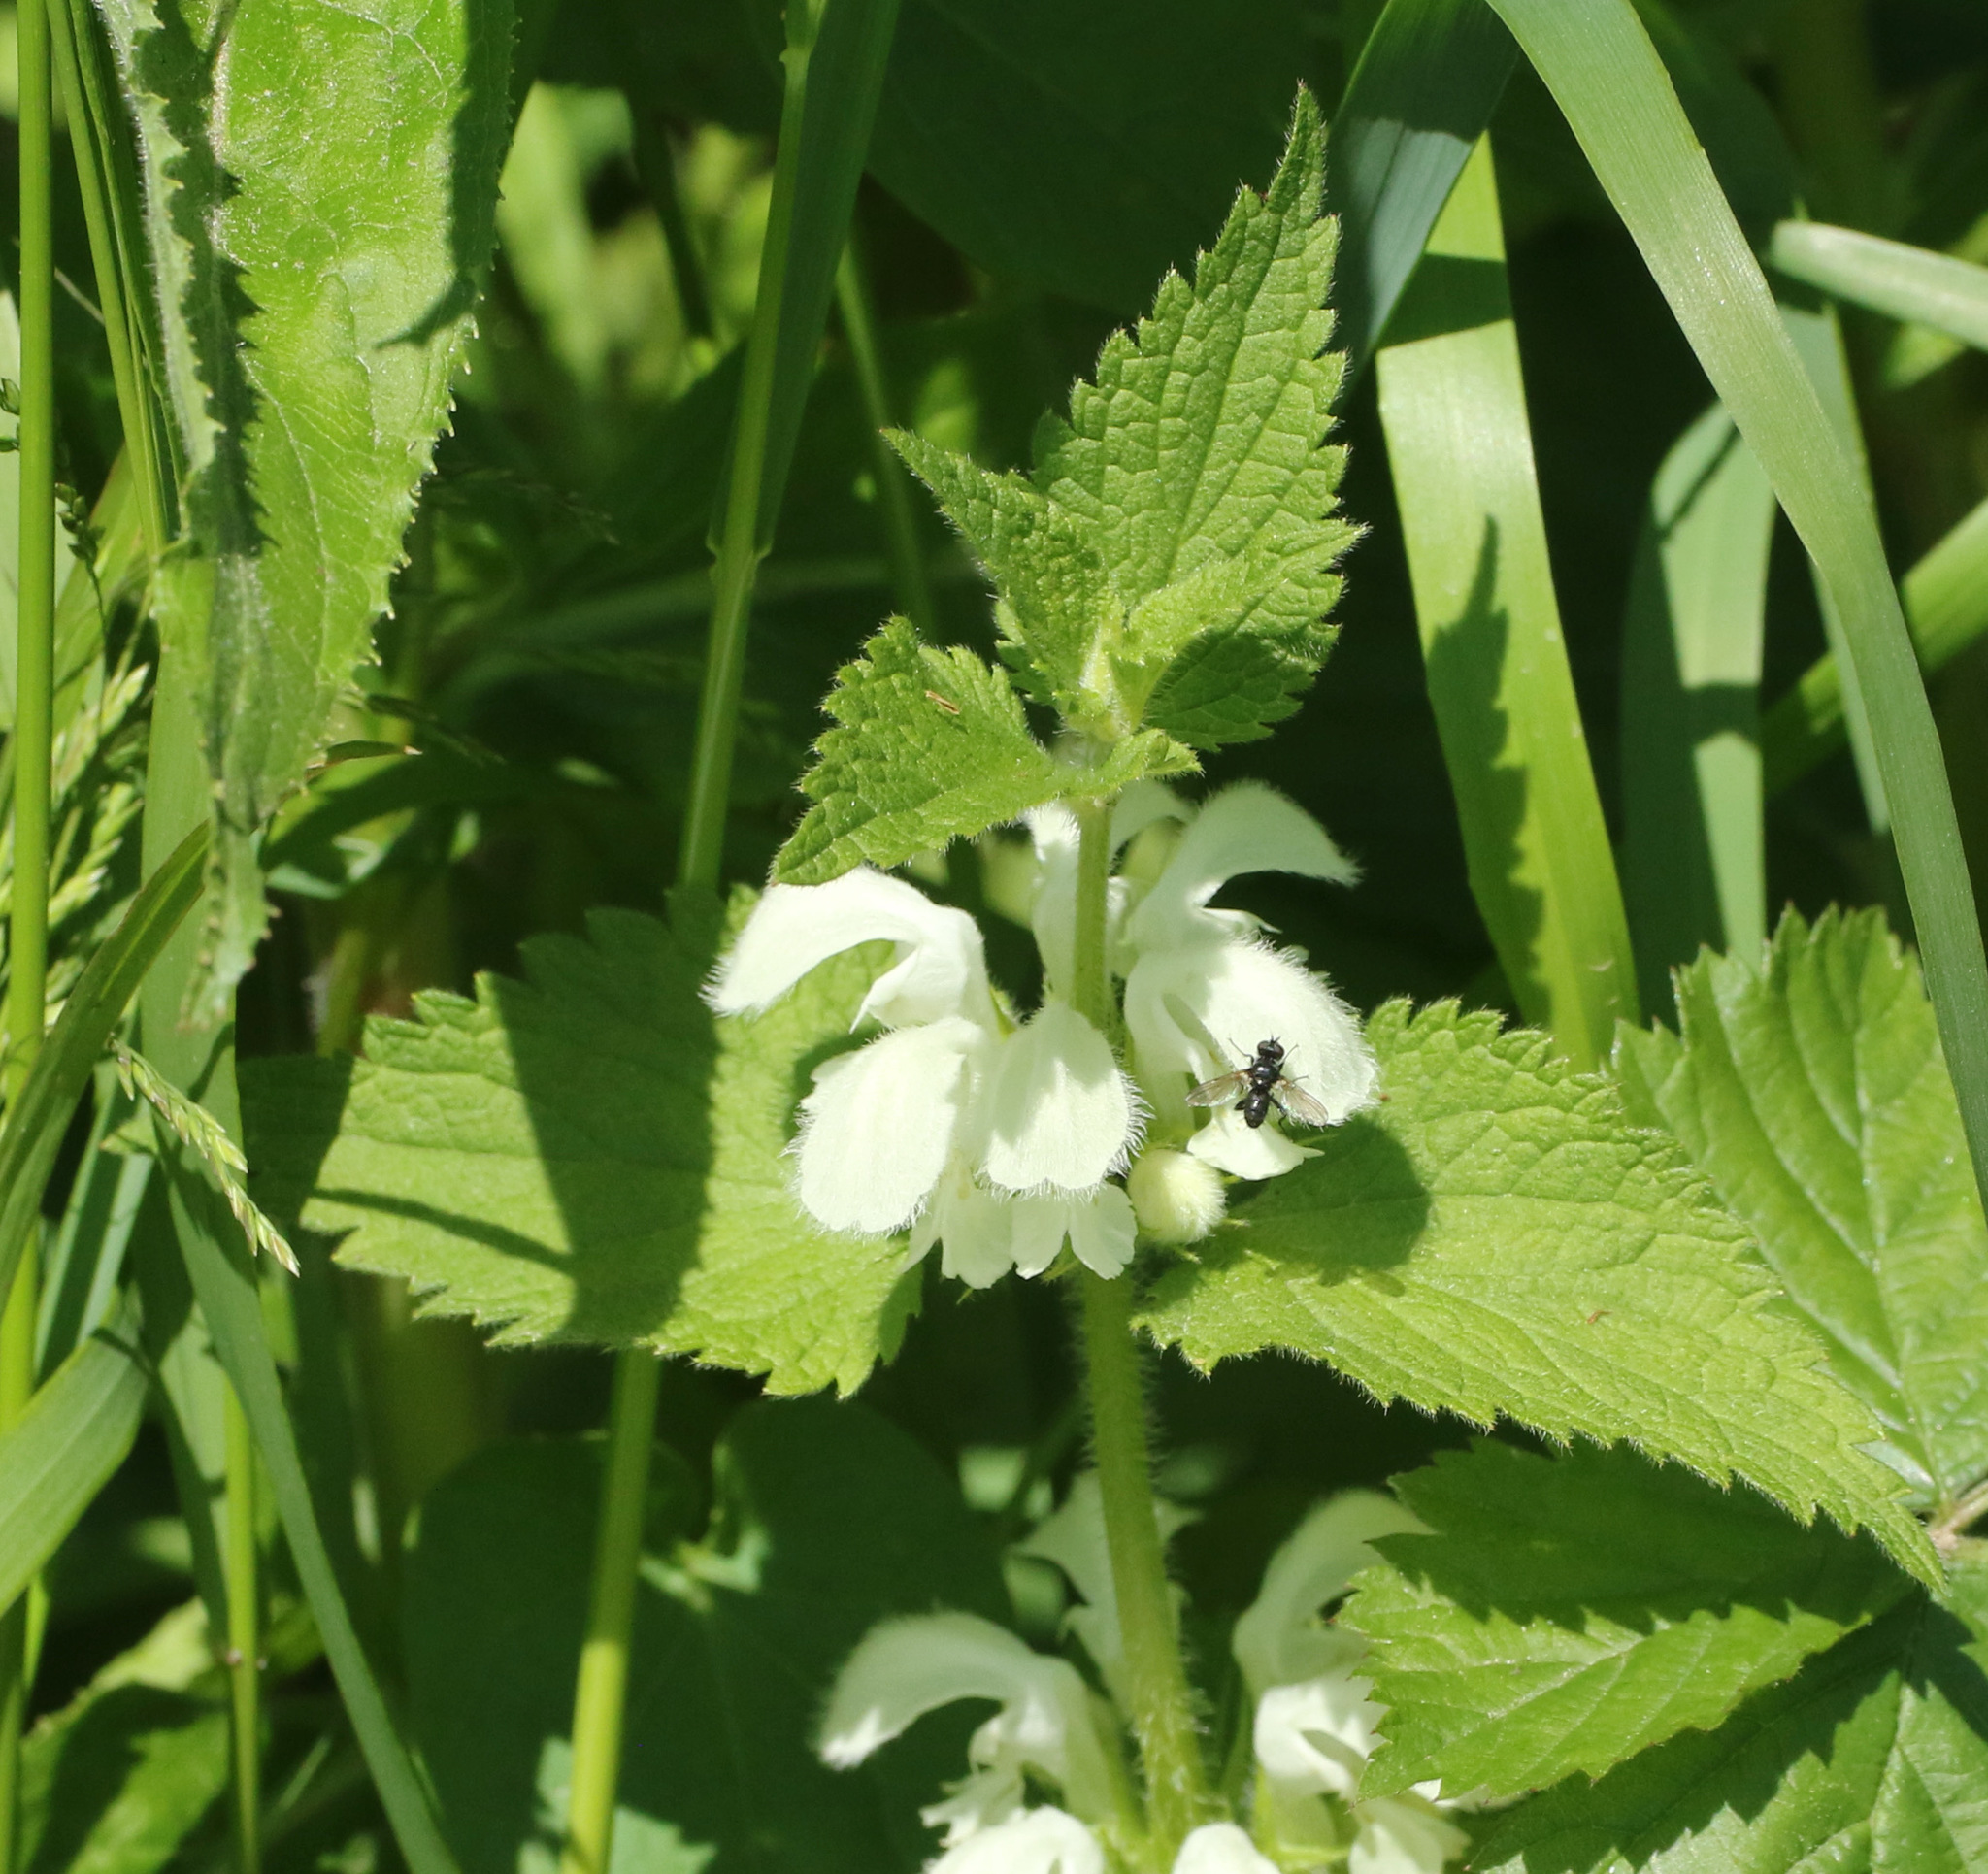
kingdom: Plantae
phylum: Tracheophyta
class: Magnoliopsida
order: Lamiales
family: Lamiaceae
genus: Lamium
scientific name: Lamium album
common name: White dead-nettle
